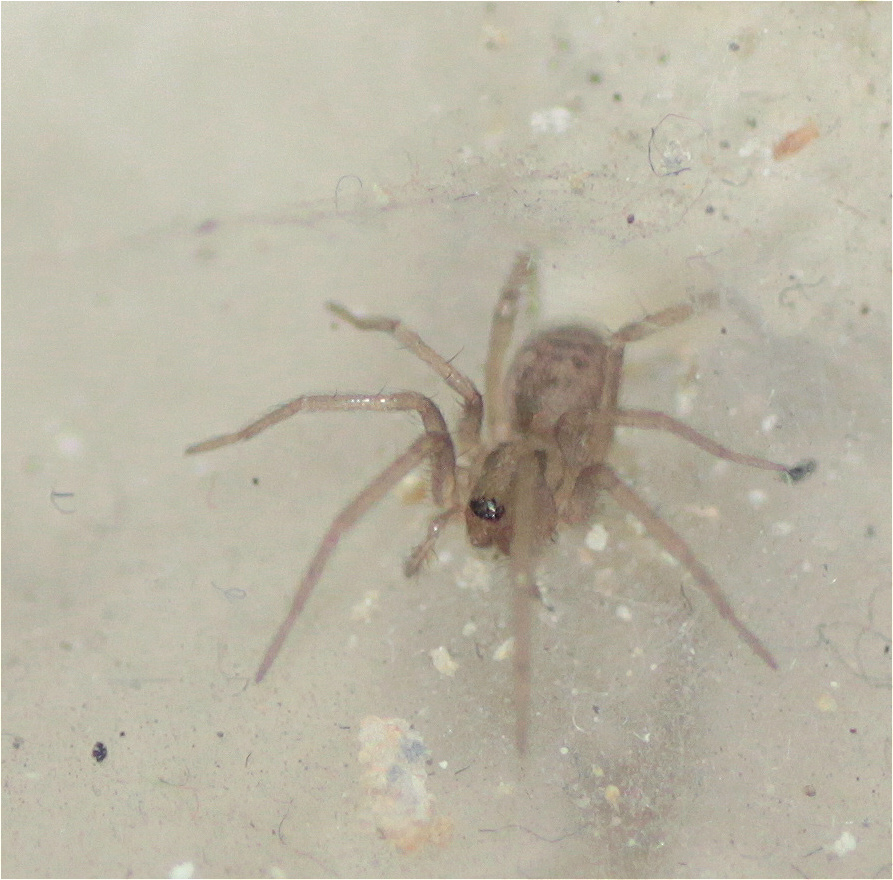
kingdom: Animalia
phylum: Arthropoda
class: Arachnida
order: Araneae
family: Agelenidae
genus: Tegenaria
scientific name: Tegenaria domestica
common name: Barn funnel weaver
